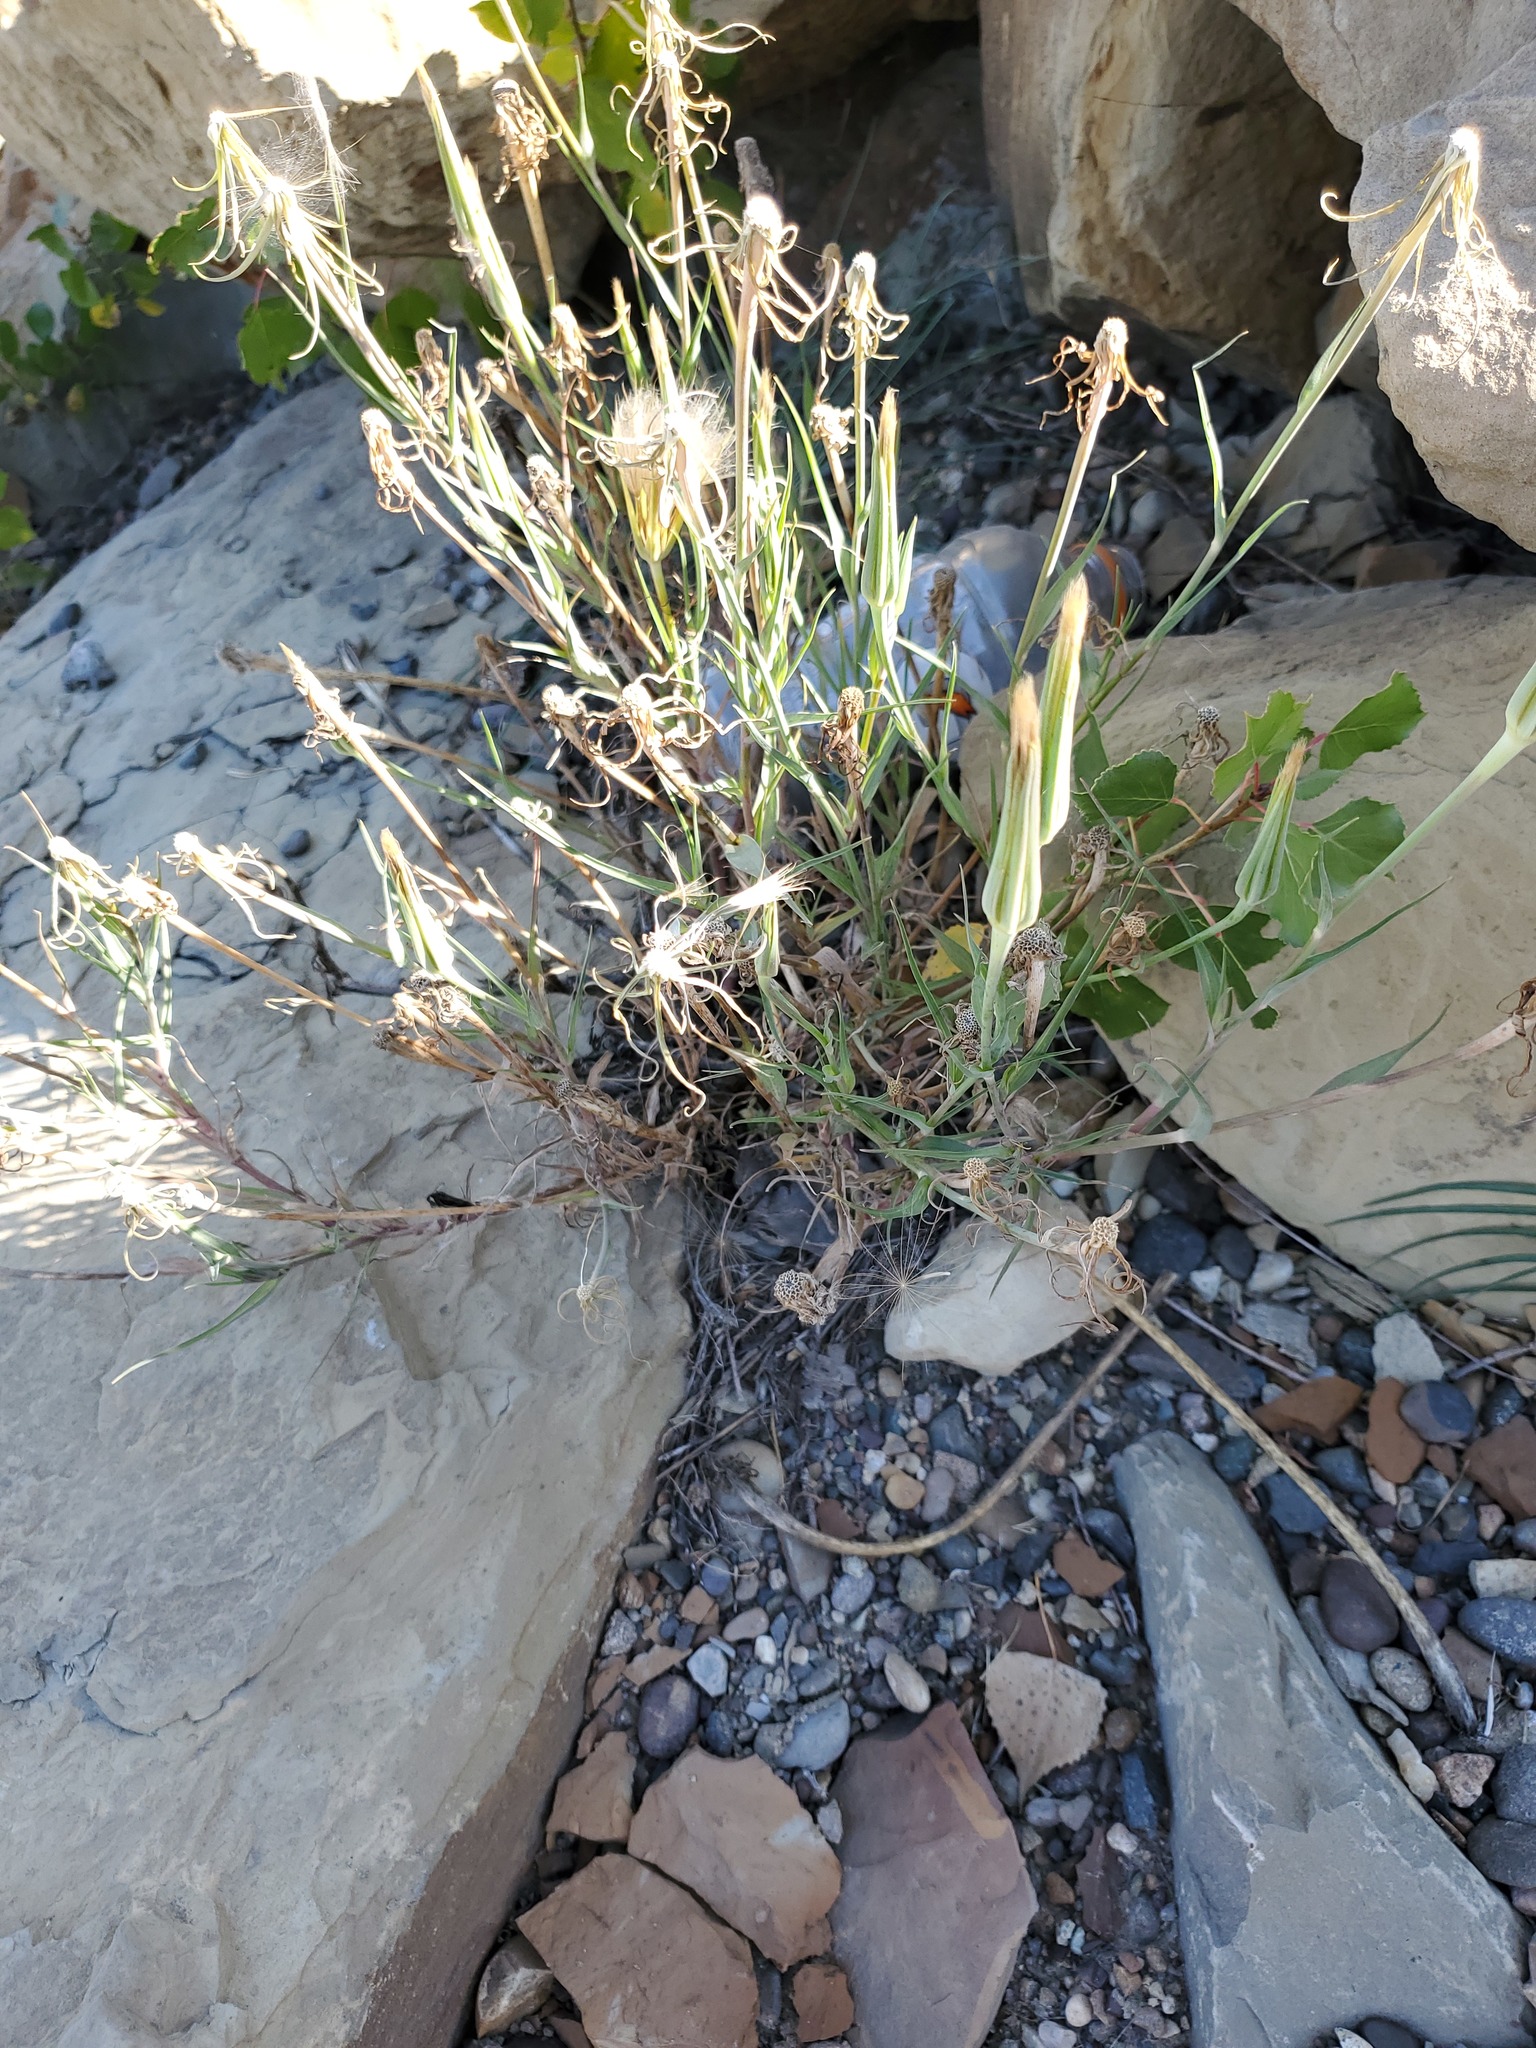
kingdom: Plantae
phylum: Tracheophyta
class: Magnoliopsida
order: Asterales
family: Asteraceae
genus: Tragopogon
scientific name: Tragopogon dubius
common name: Yellow salsify
